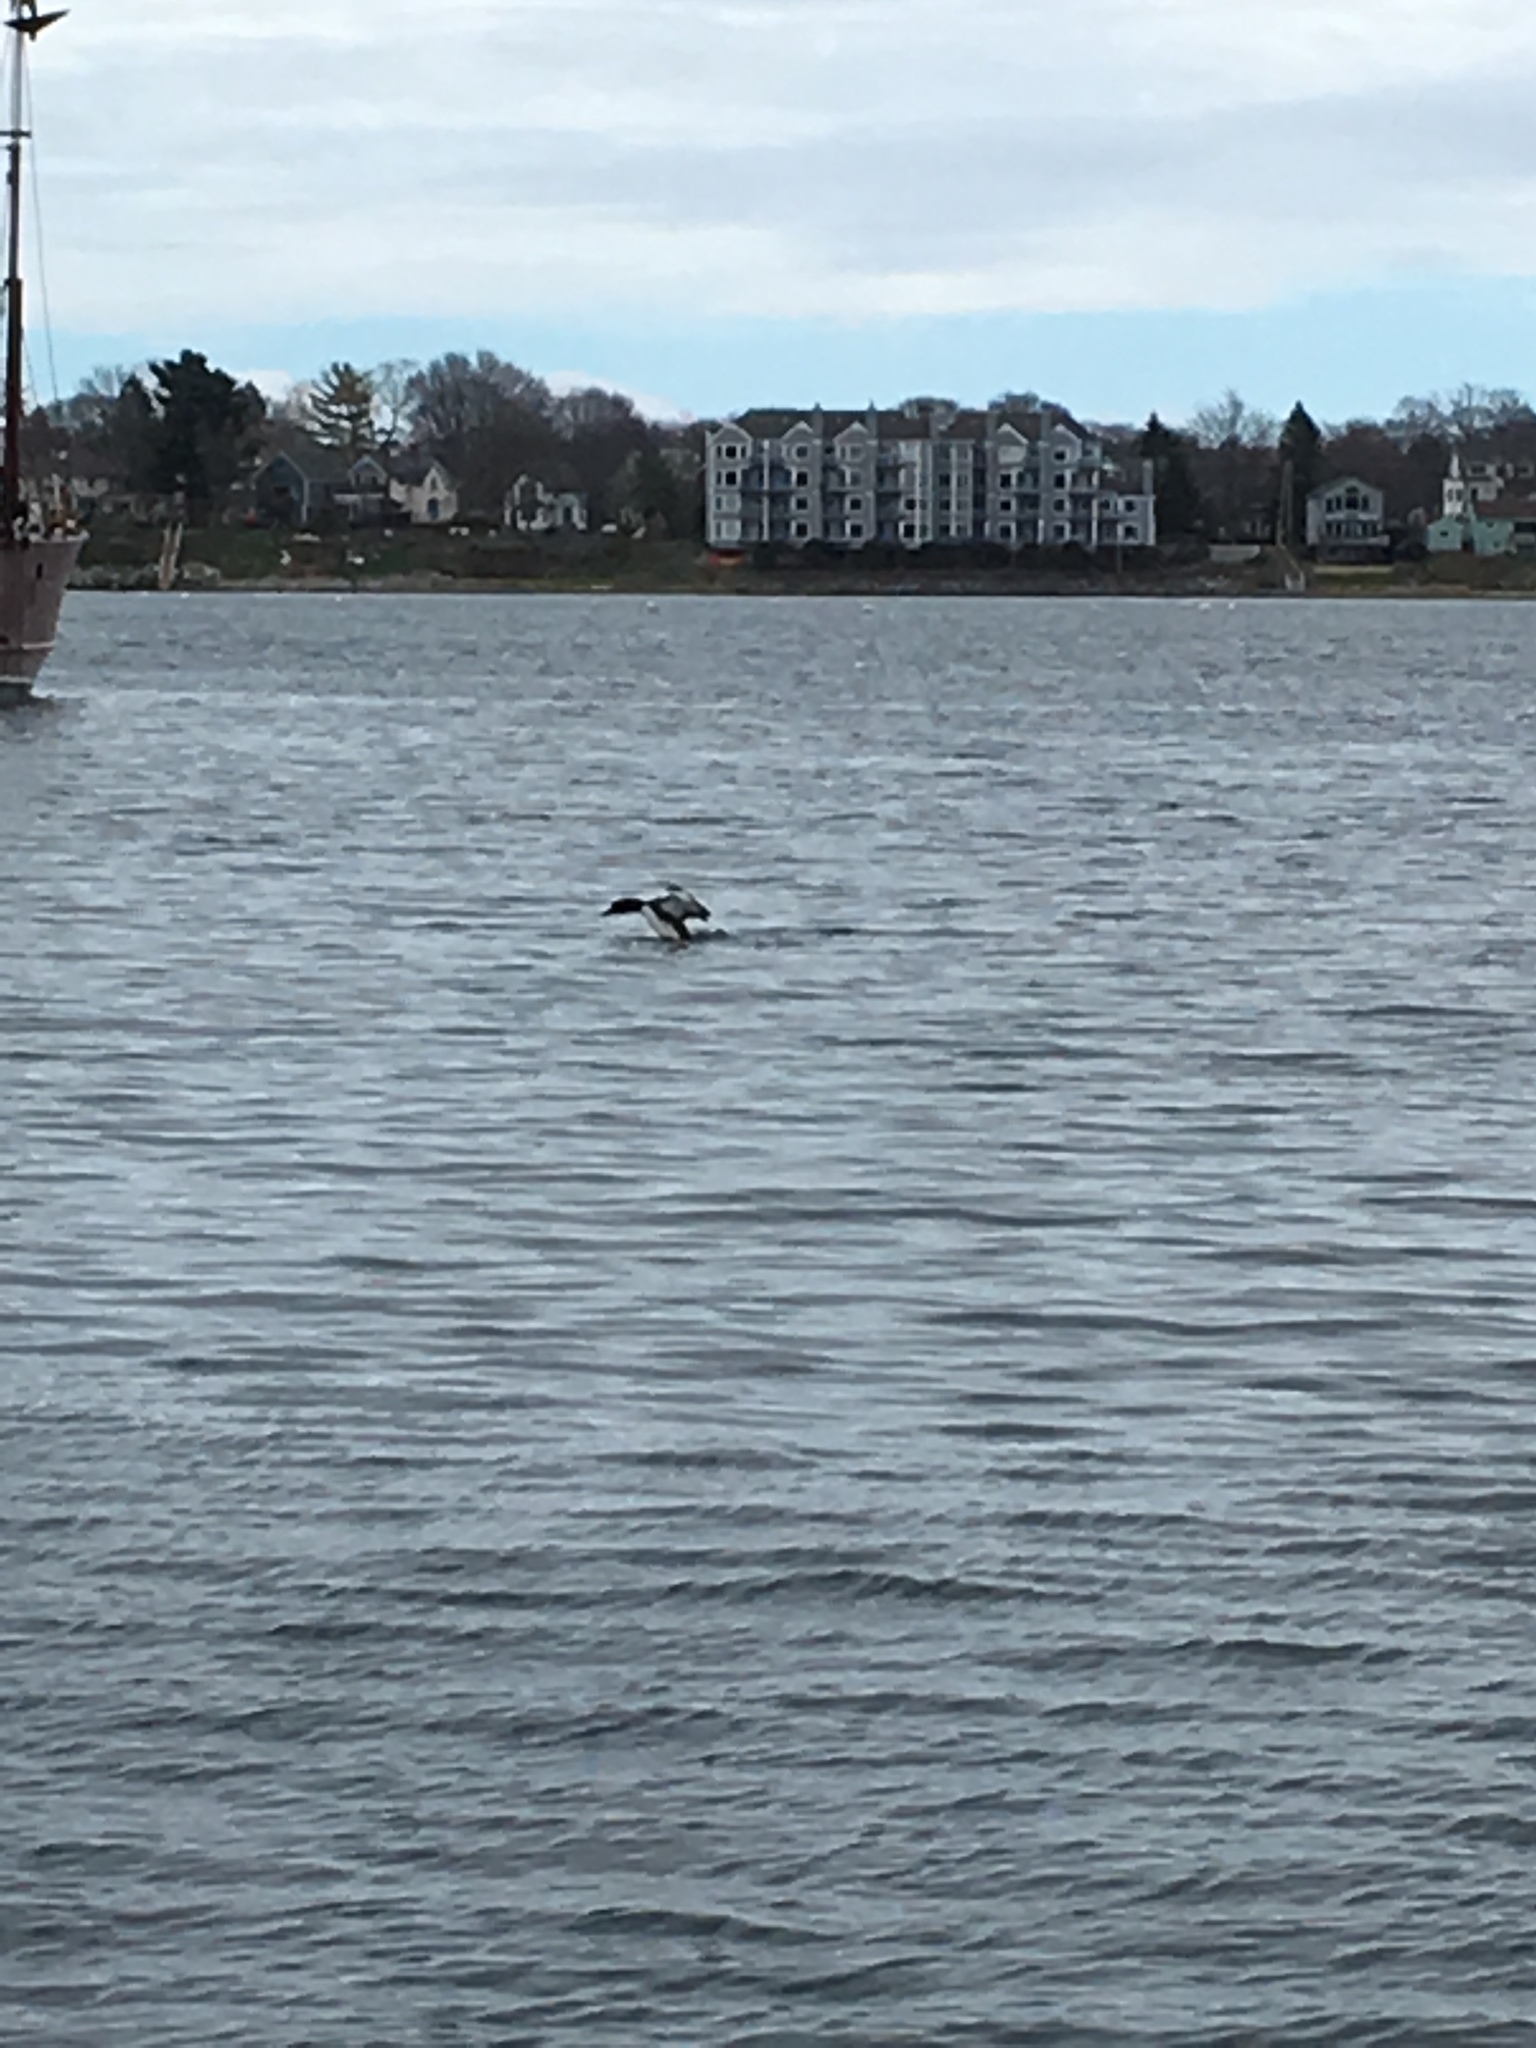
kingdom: Animalia
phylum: Chordata
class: Aves
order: Gaviiformes
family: Gaviidae
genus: Gavia
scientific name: Gavia immer
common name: Common loon
